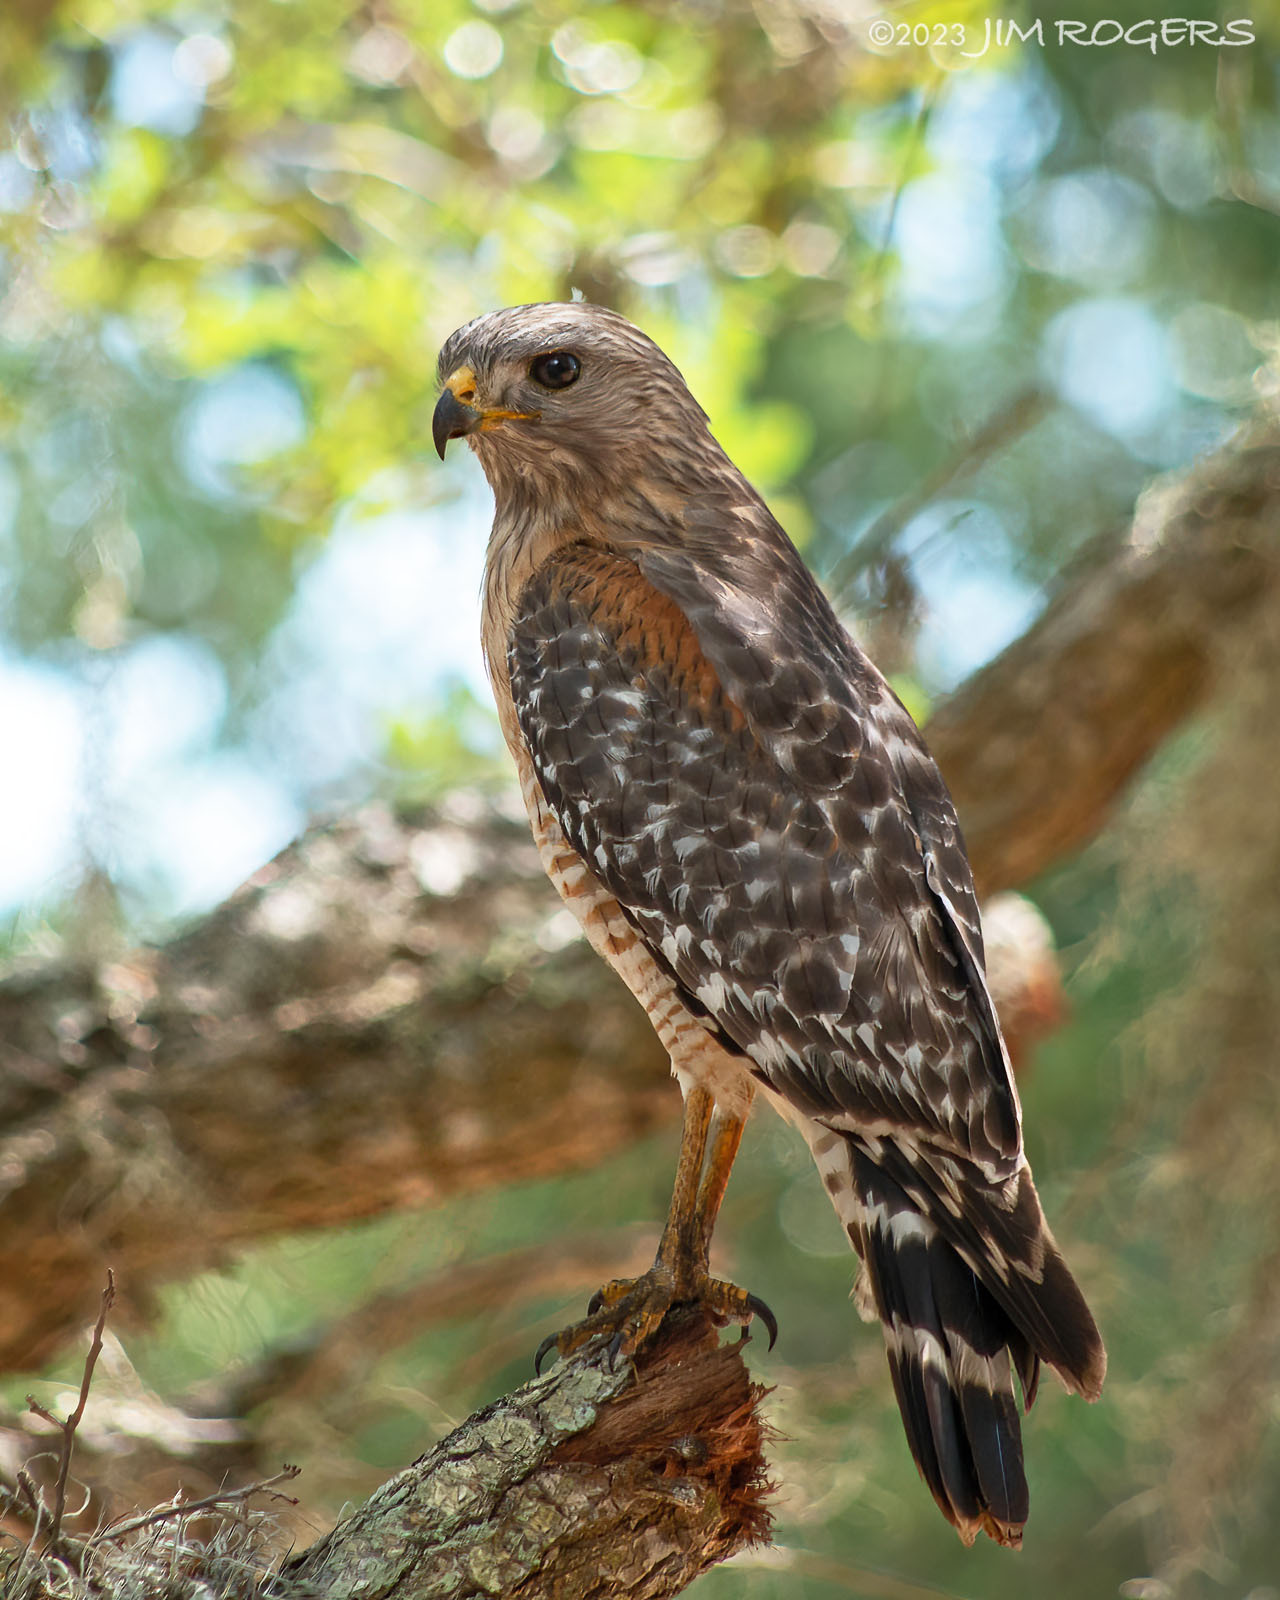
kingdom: Animalia
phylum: Chordata
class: Aves
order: Accipitriformes
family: Accipitridae
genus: Buteo
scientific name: Buteo lineatus
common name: Red-shouldered hawk
